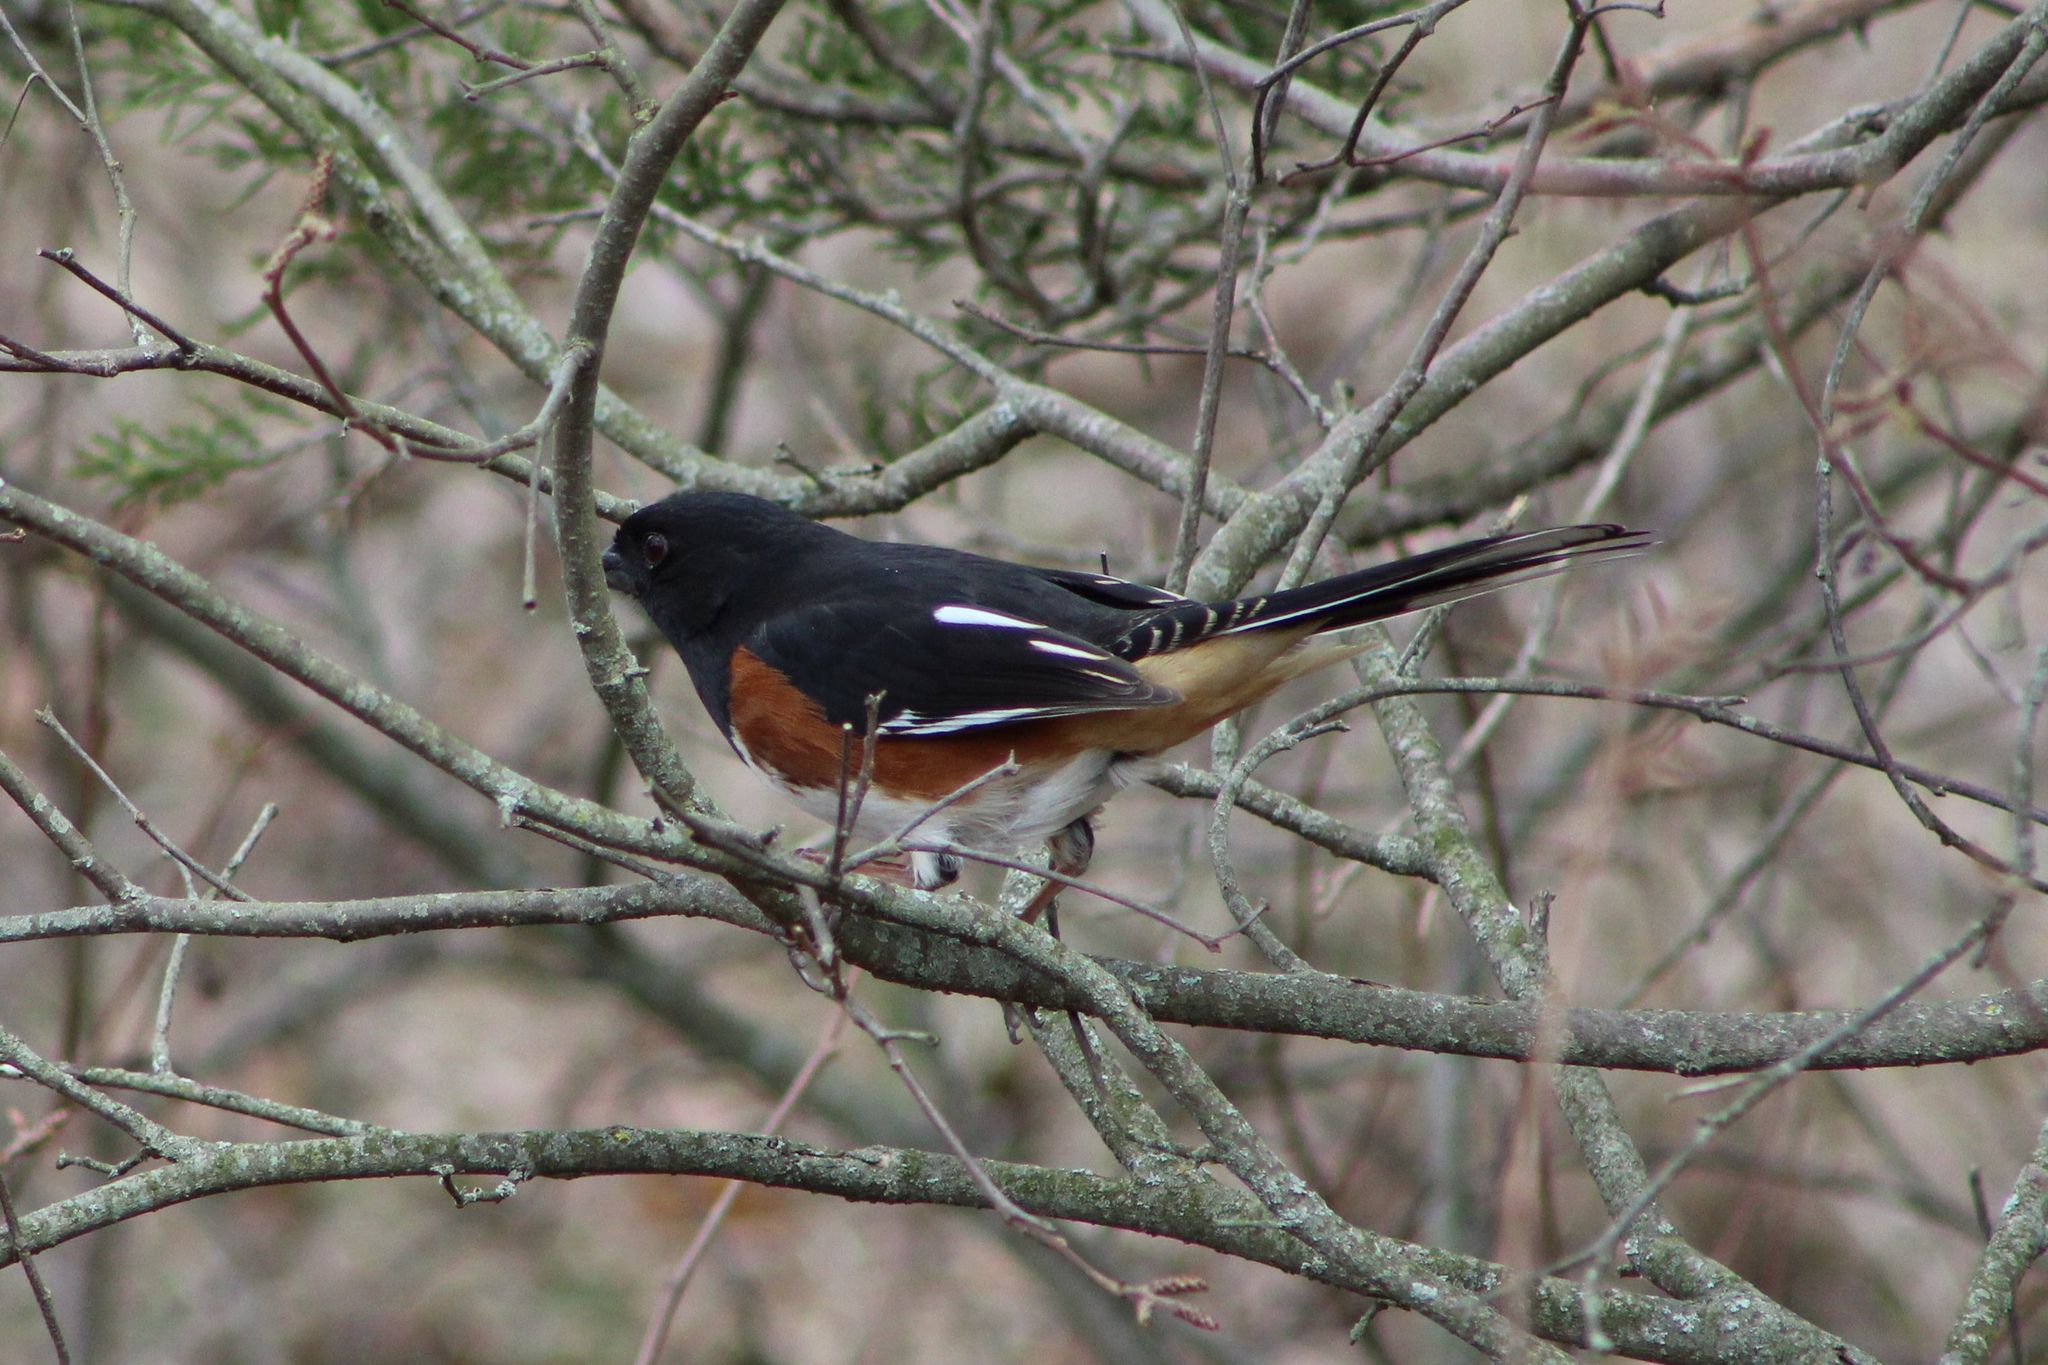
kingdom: Animalia
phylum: Chordata
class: Aves
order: Passeriformes
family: Passerellidae
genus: Pipilo
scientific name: Pipilo erythrophthalmus
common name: Eastern towhee
